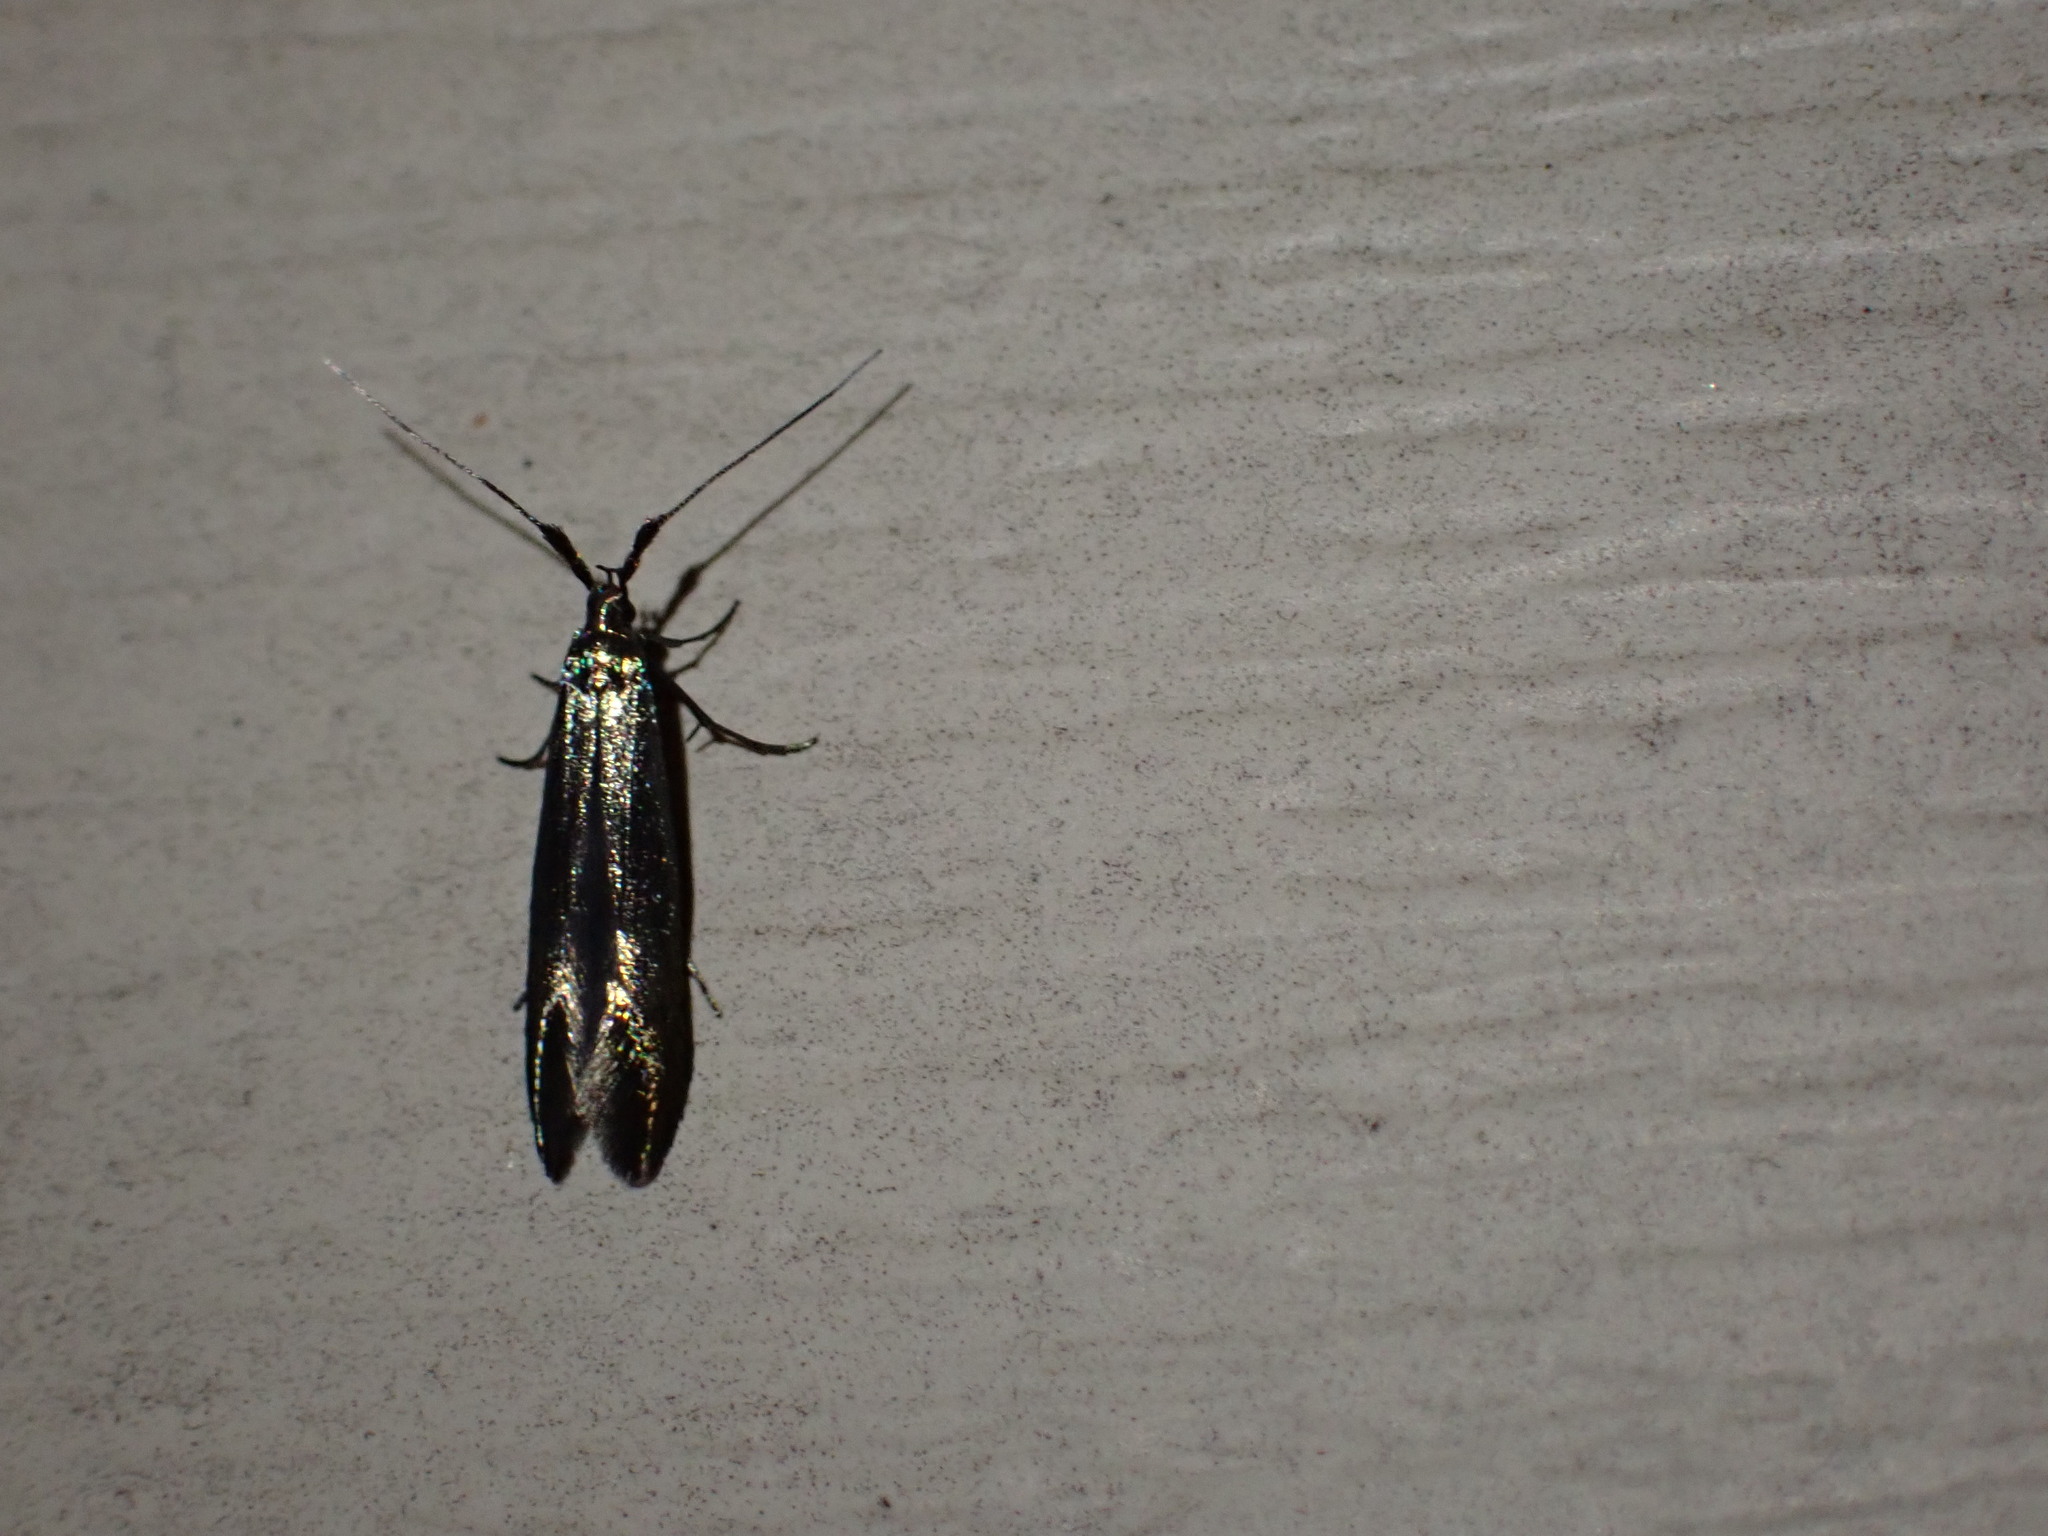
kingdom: Animalia
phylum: Arthropoda
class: Insecta
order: Lepidoptera
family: Coleophoridae
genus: Coleophora
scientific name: Coleophora mayrella
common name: Meadow case-bearer
